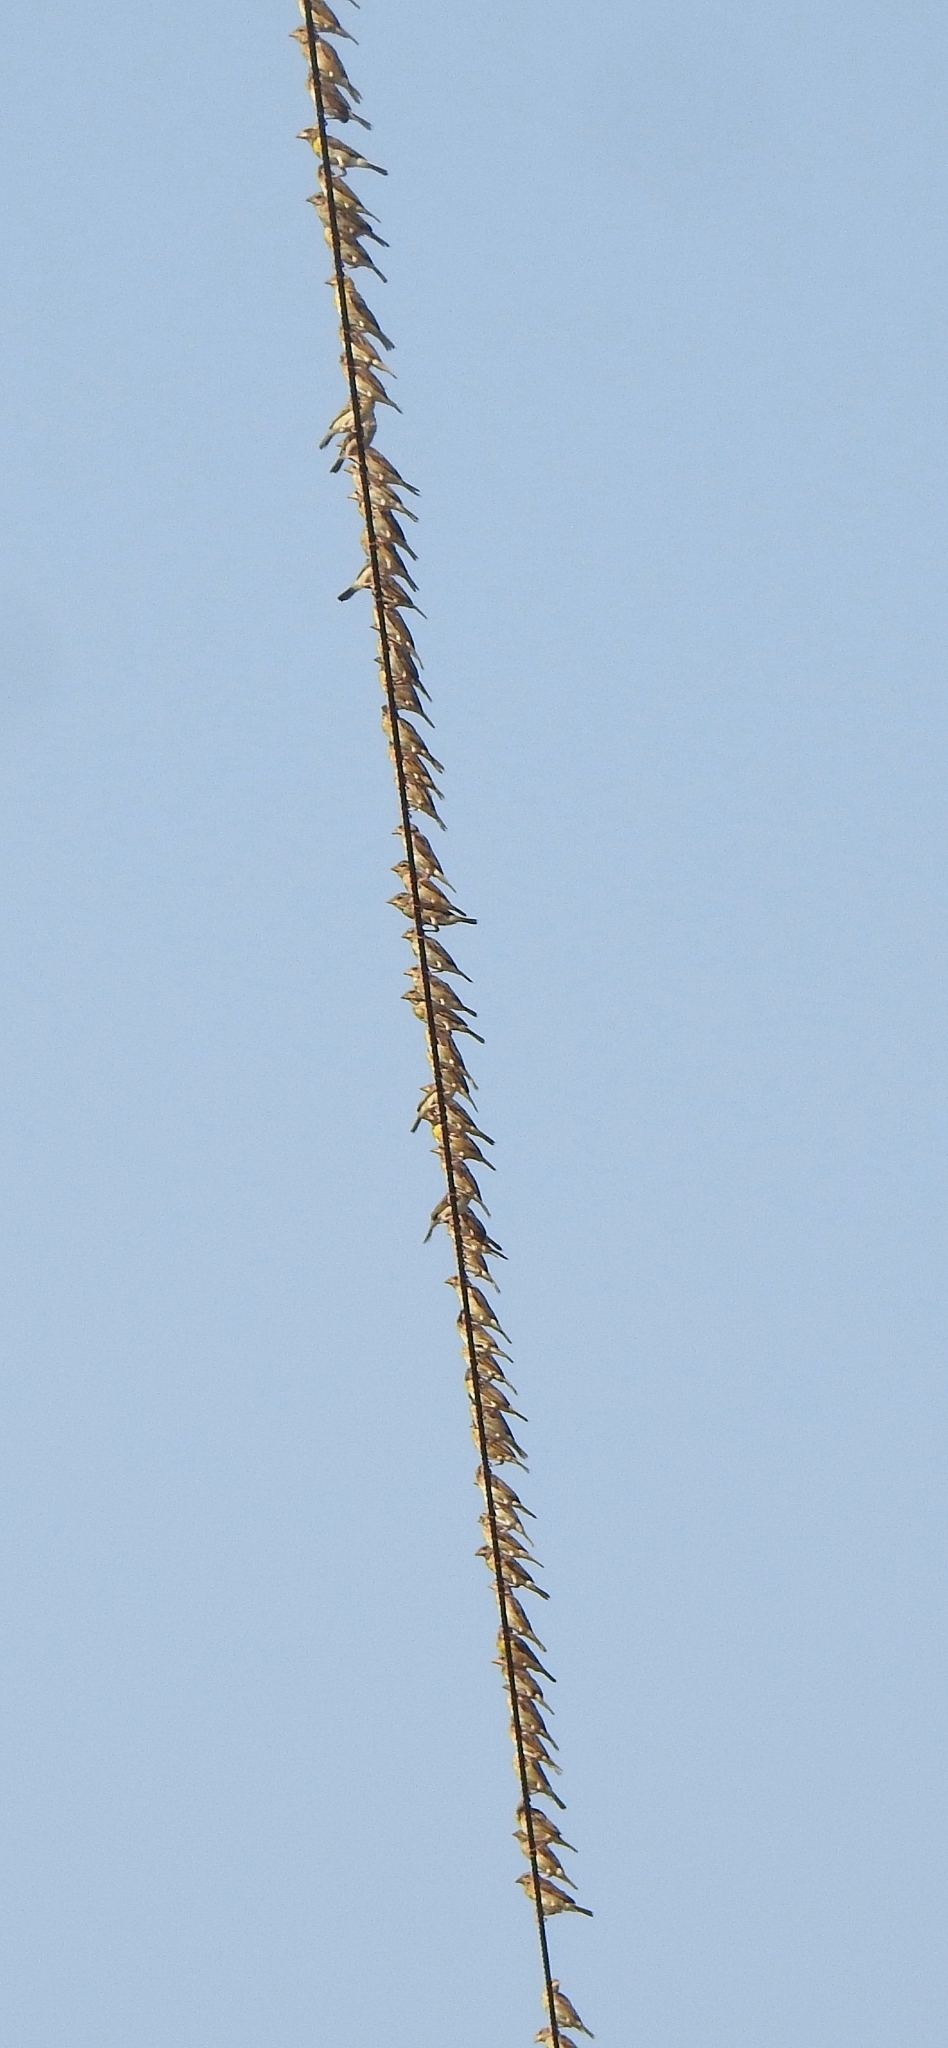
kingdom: Animalia
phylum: Chordata
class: Aves
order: Passeriformes
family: Ploceidae
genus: Ploceus
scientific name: Ploceus philippinus
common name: Baya weaver
